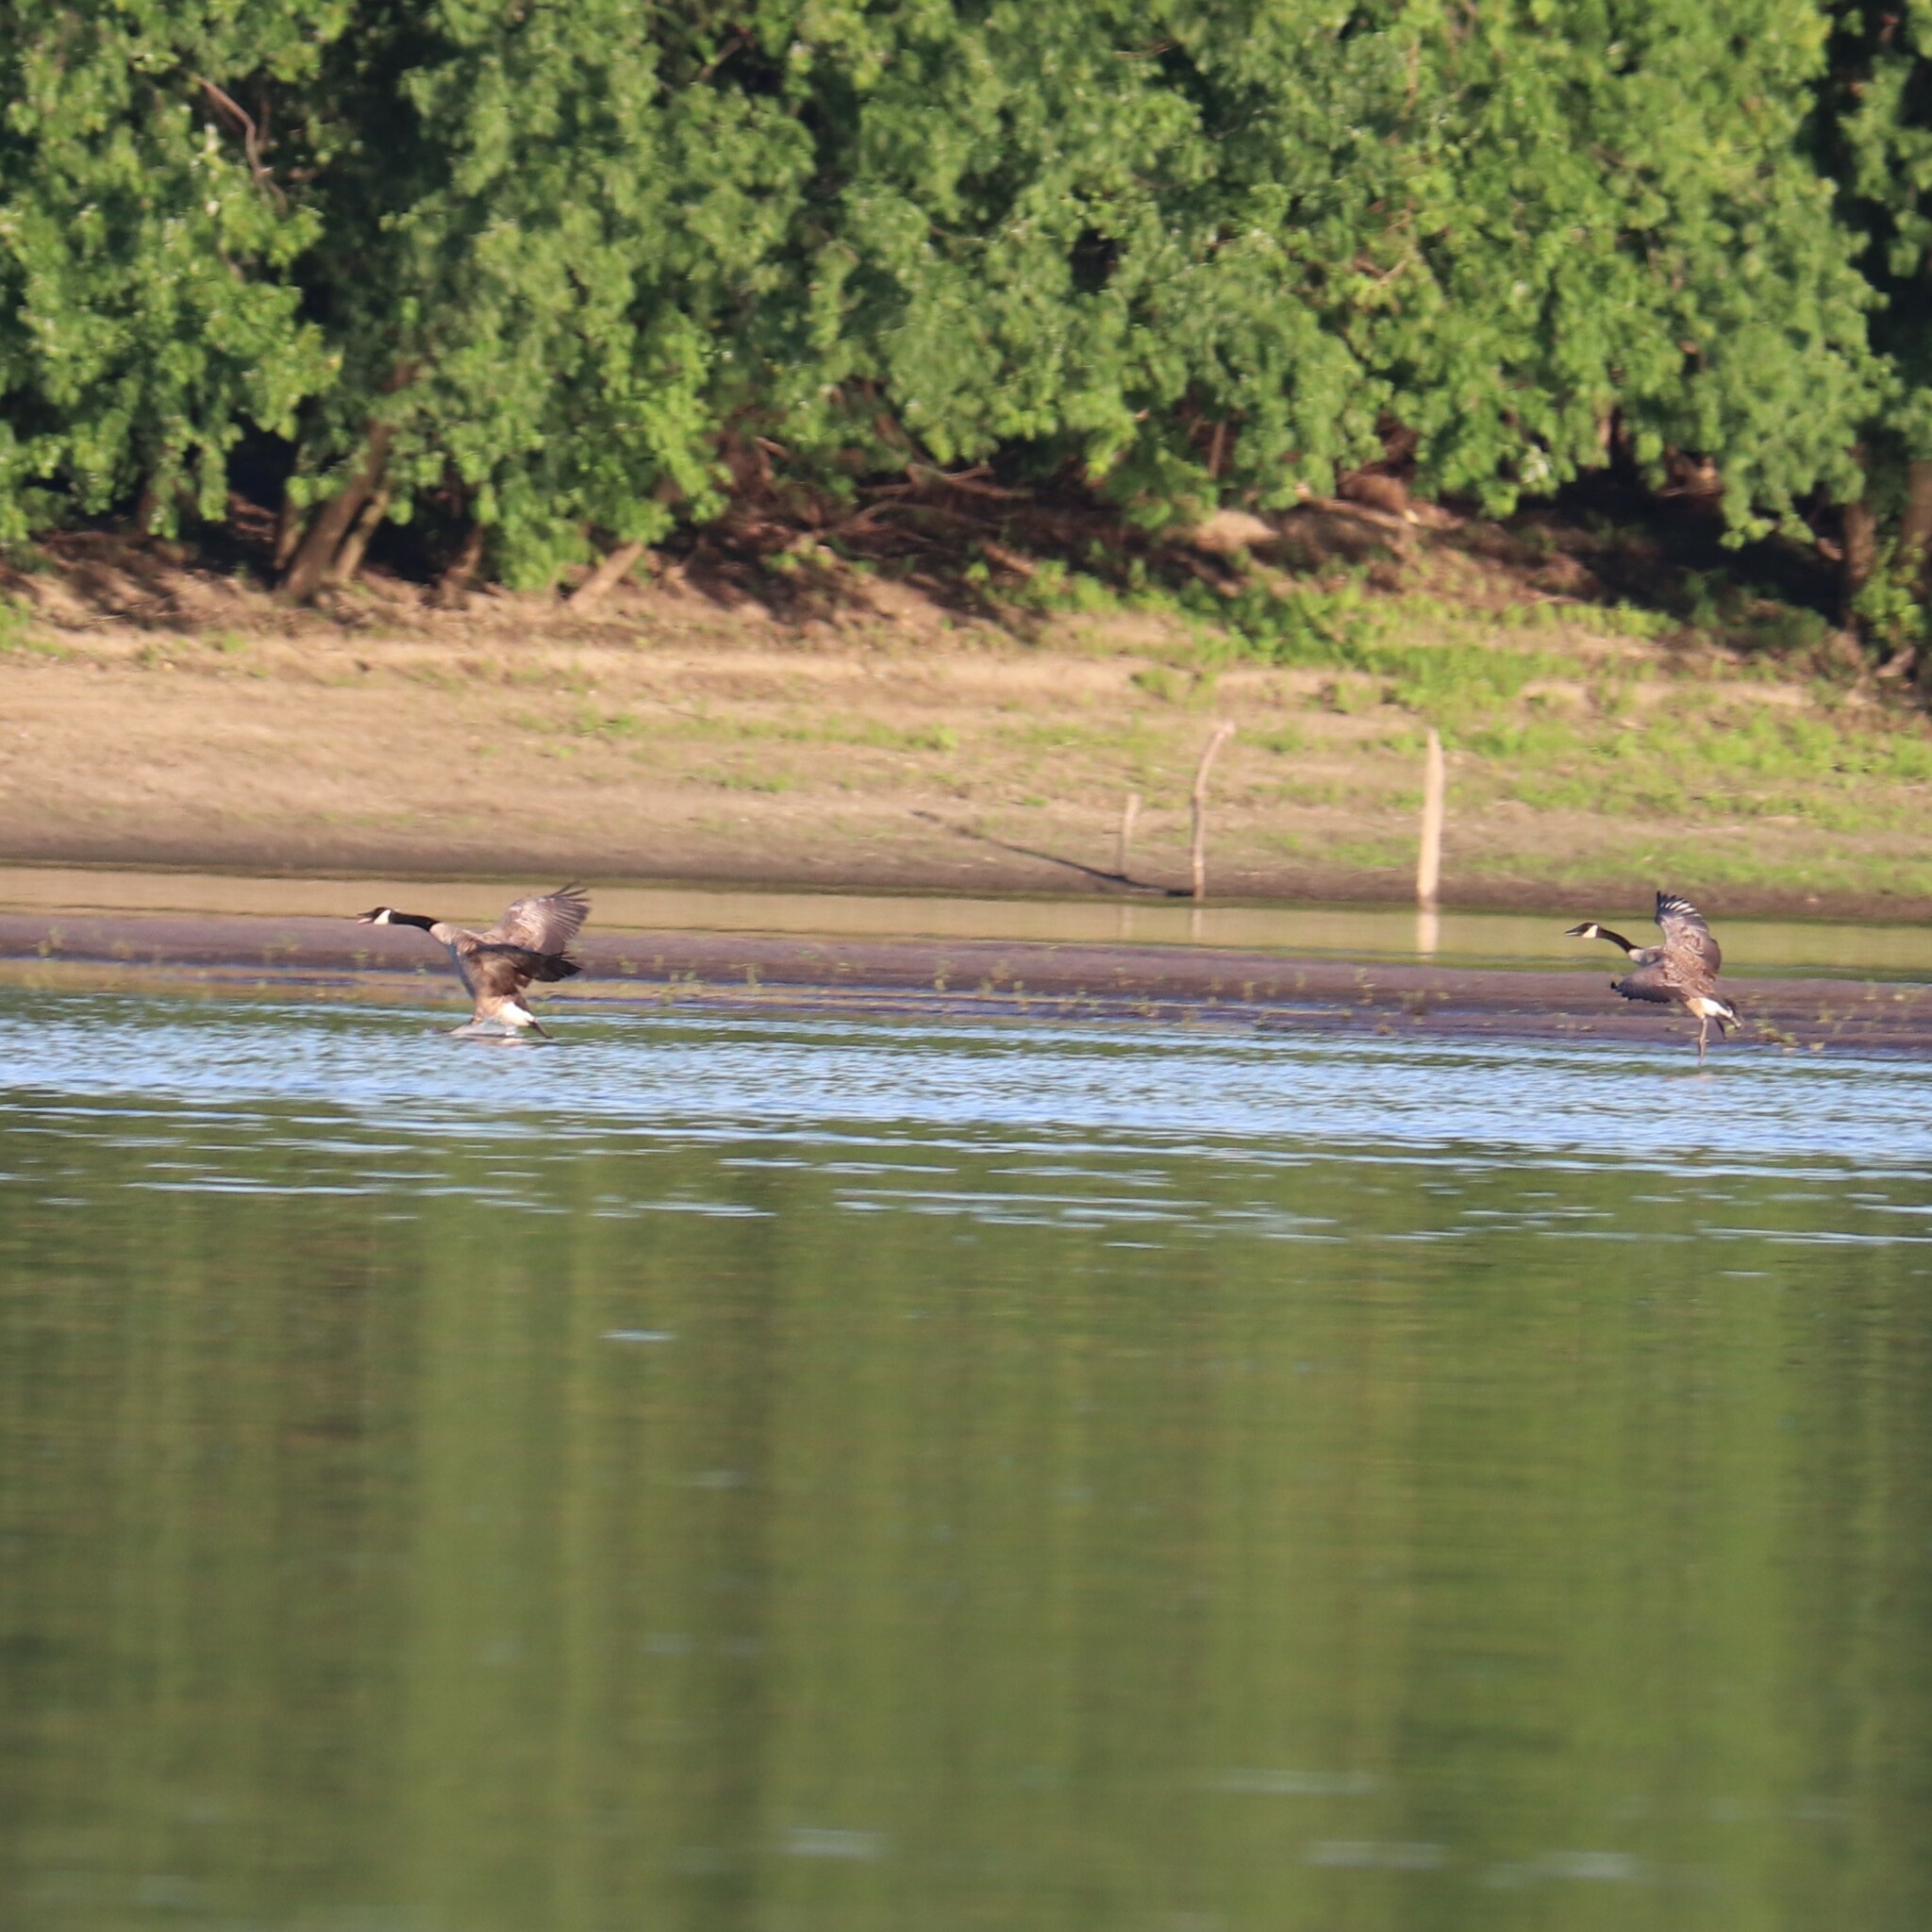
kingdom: Animalia
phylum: Chordata
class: Aves
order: Anseriformes
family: Anatidae
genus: Branta
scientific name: Branta canadensis
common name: Canada goose
